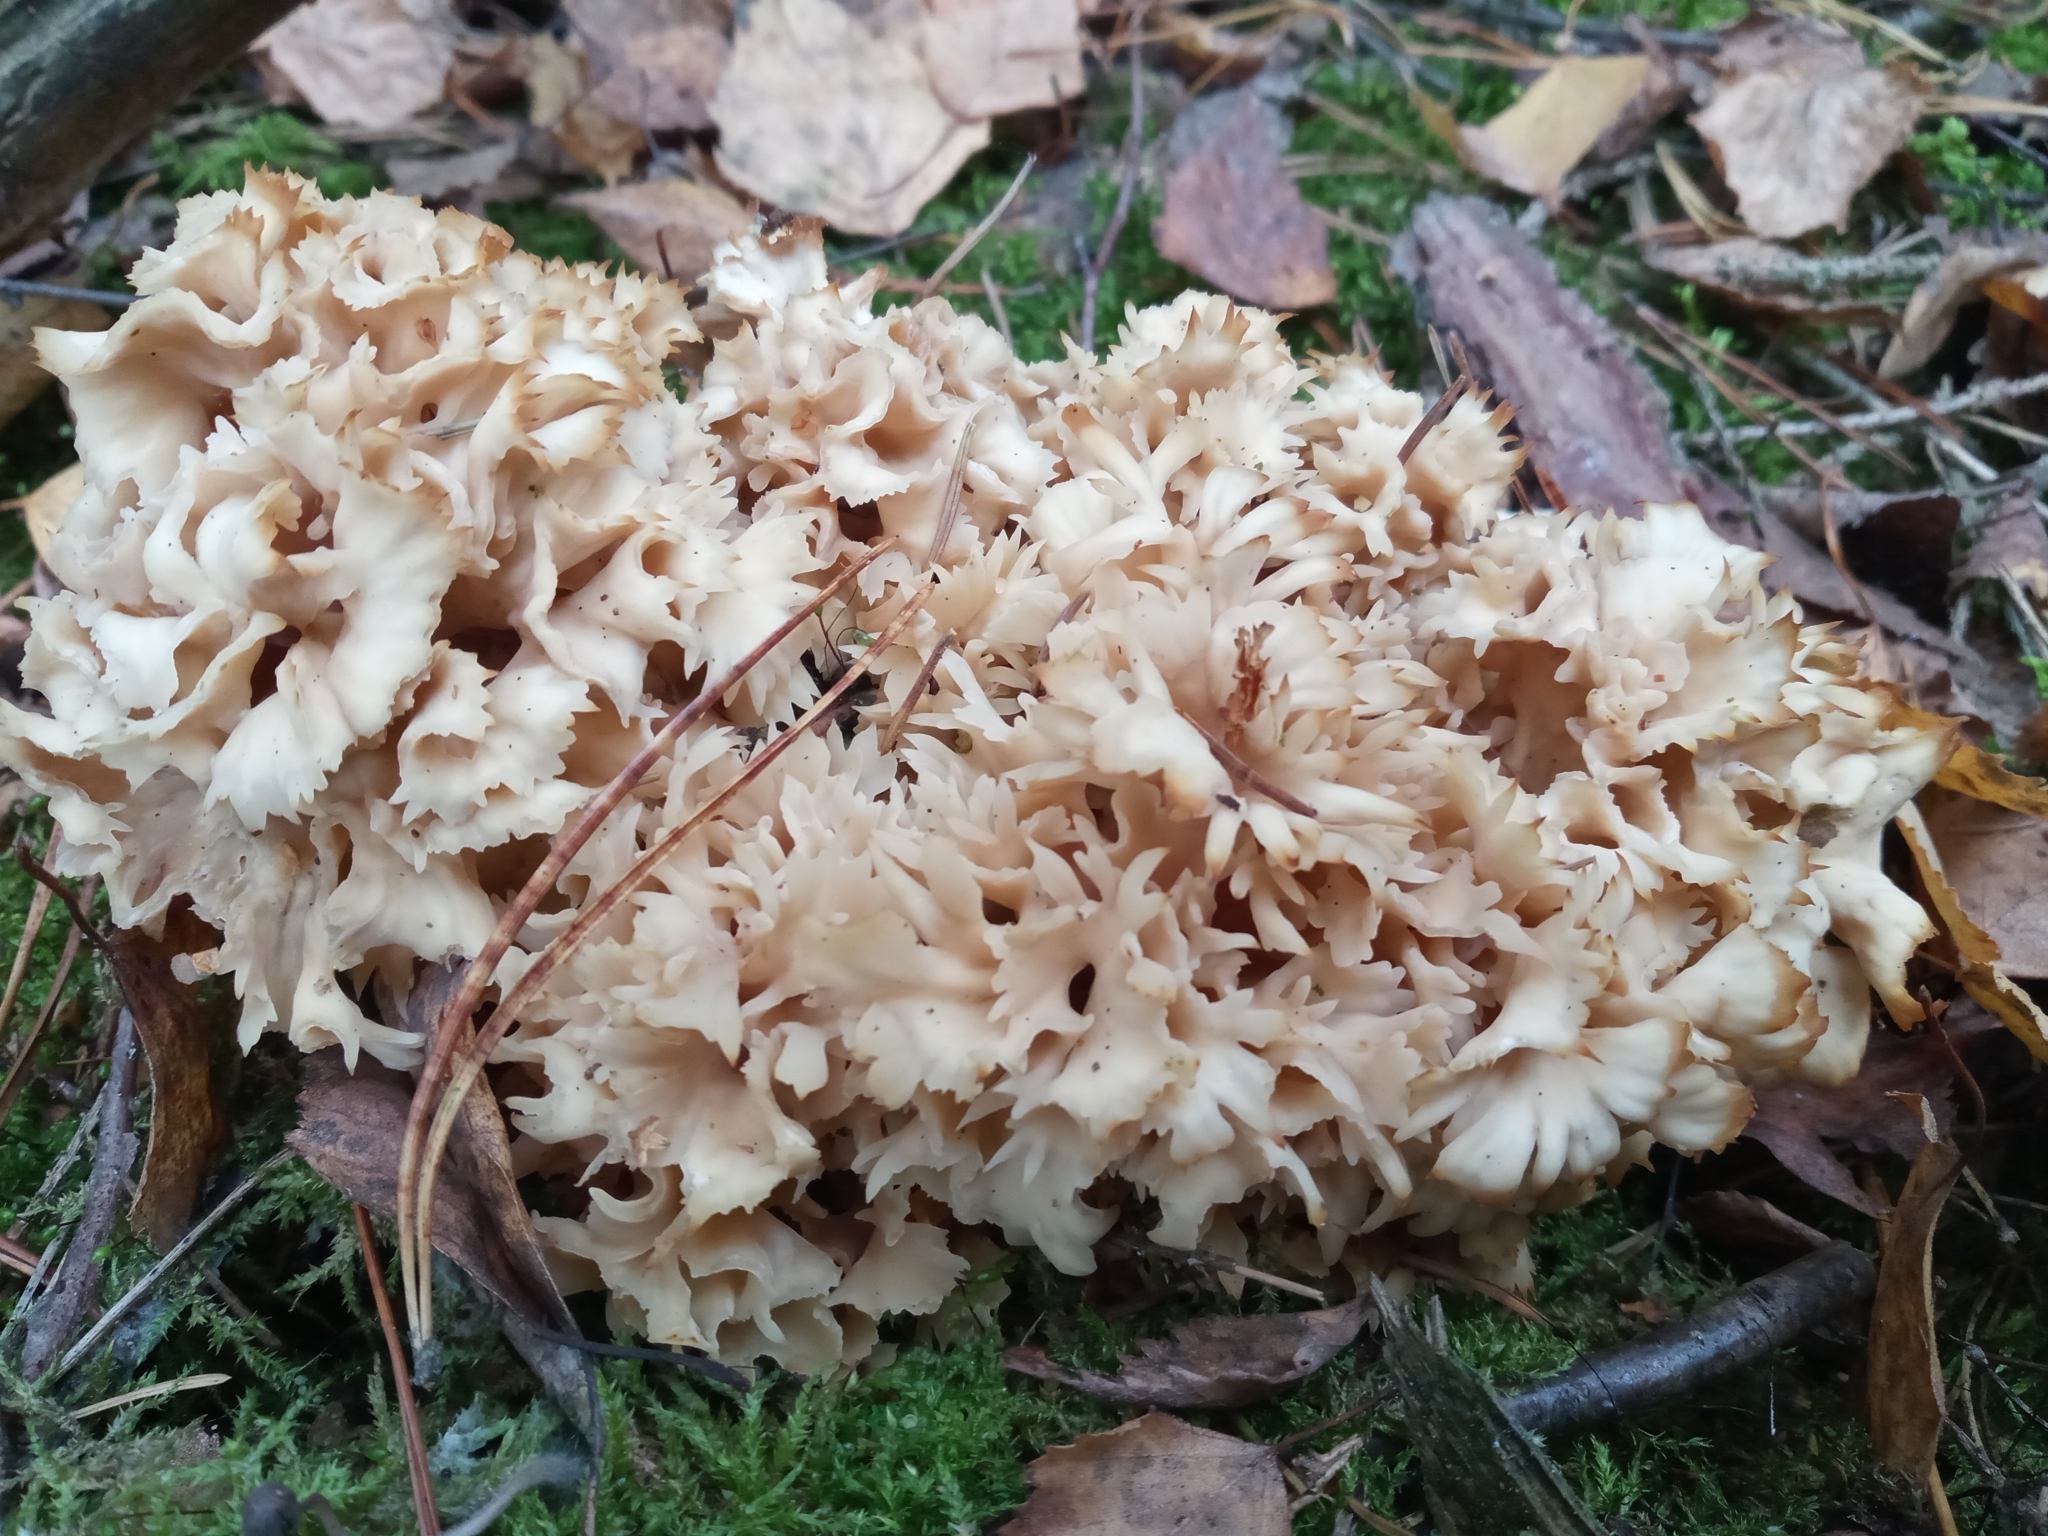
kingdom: Fungi
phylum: Basidiomycota
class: Agaricomycetes
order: Polyporales
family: Sparassidaceae
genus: Sparassis
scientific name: Sparassis crispa
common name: Brain fungus
